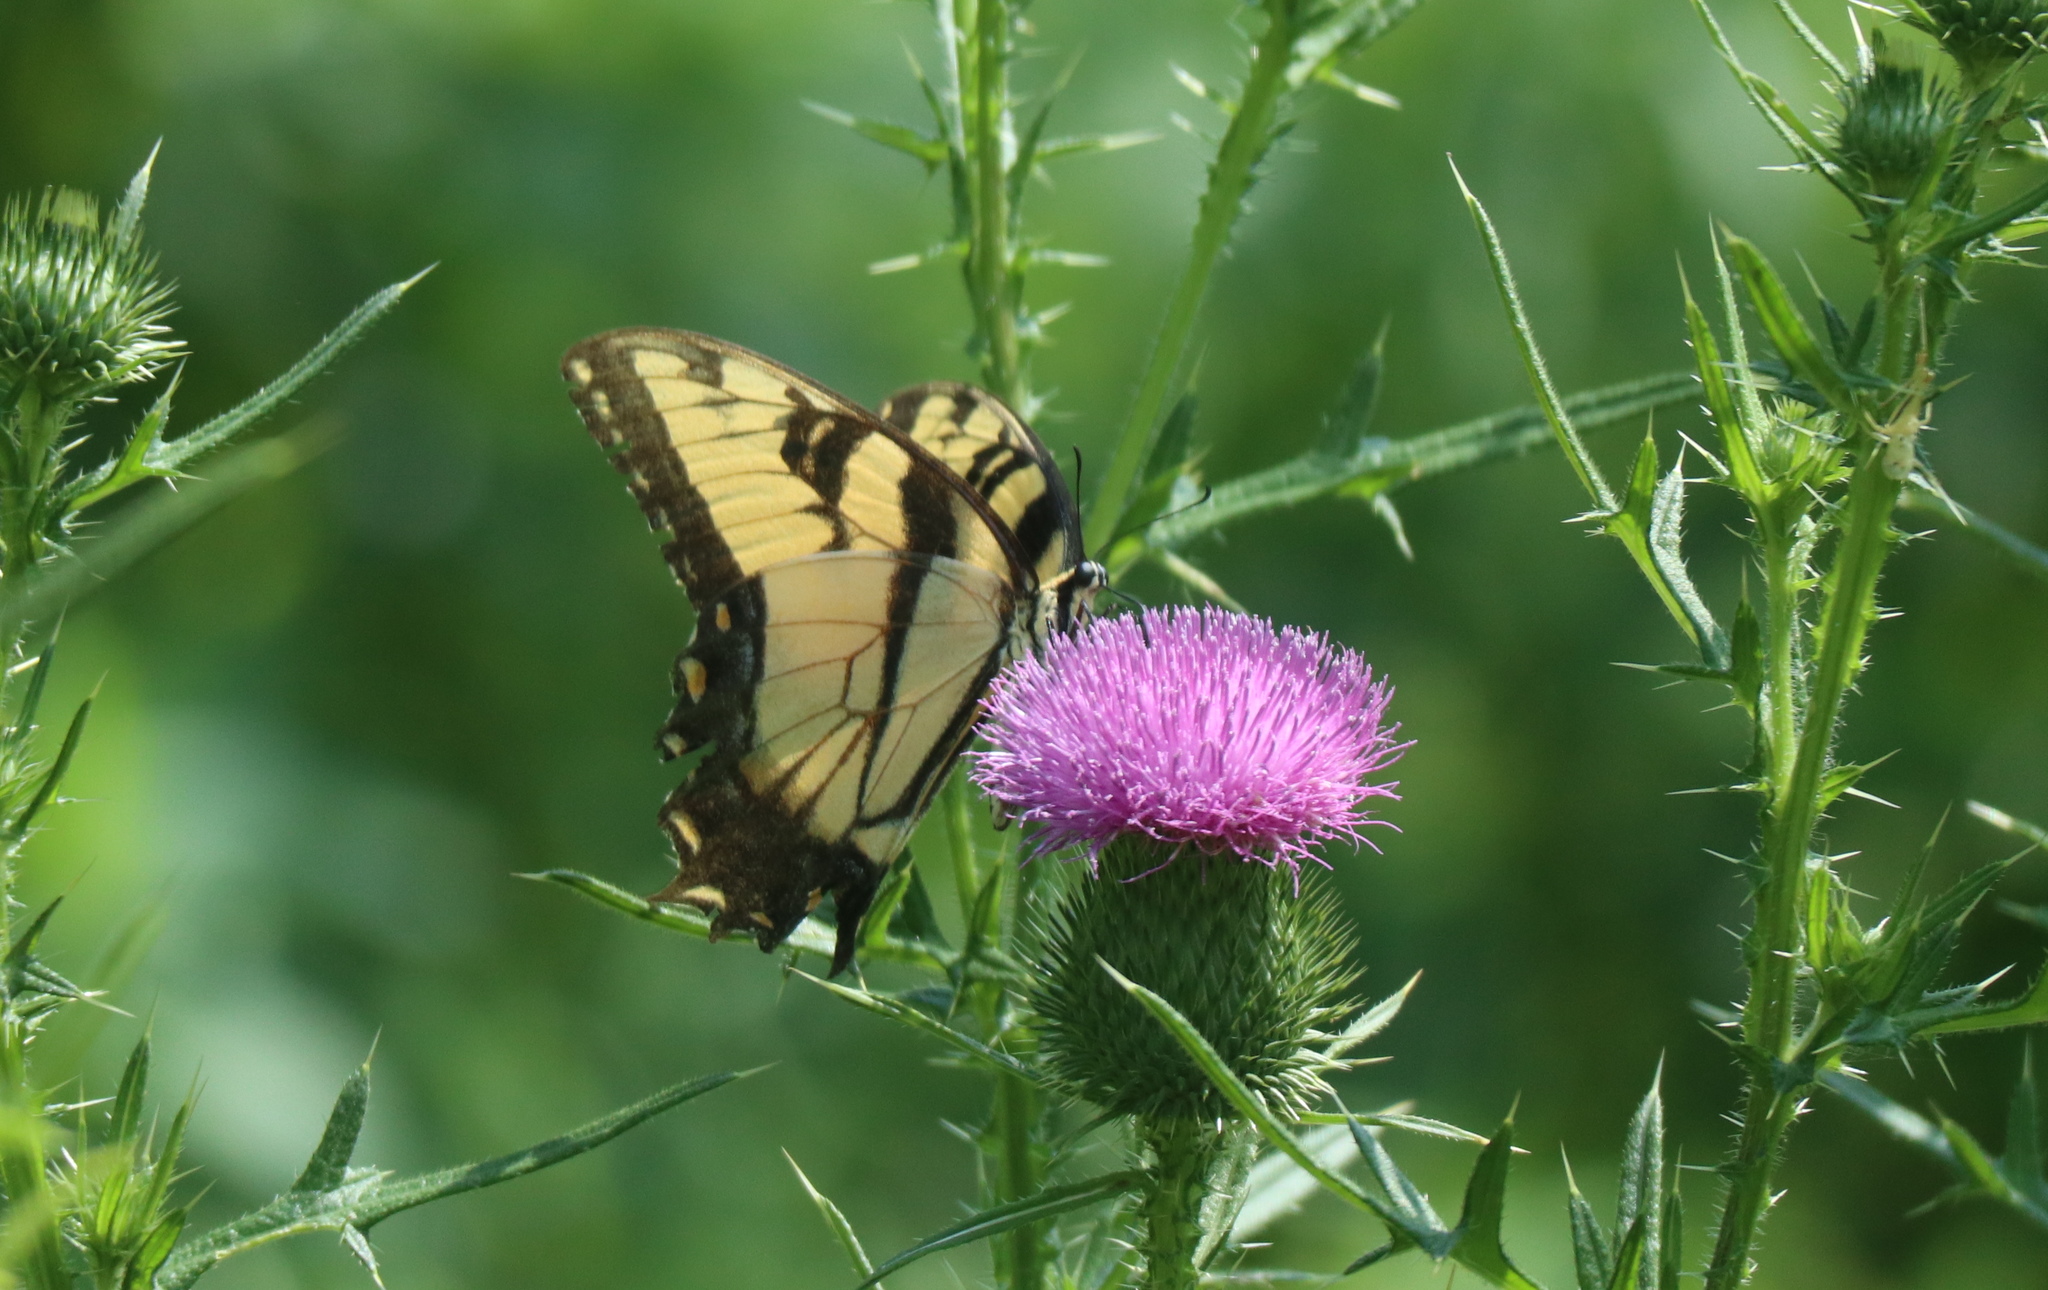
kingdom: Animalia
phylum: Arthropoda
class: Insecta
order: Lepidoptera
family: Papilionidae
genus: Papilio
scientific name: Papilio glaucus
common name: Tiger swallowtail
